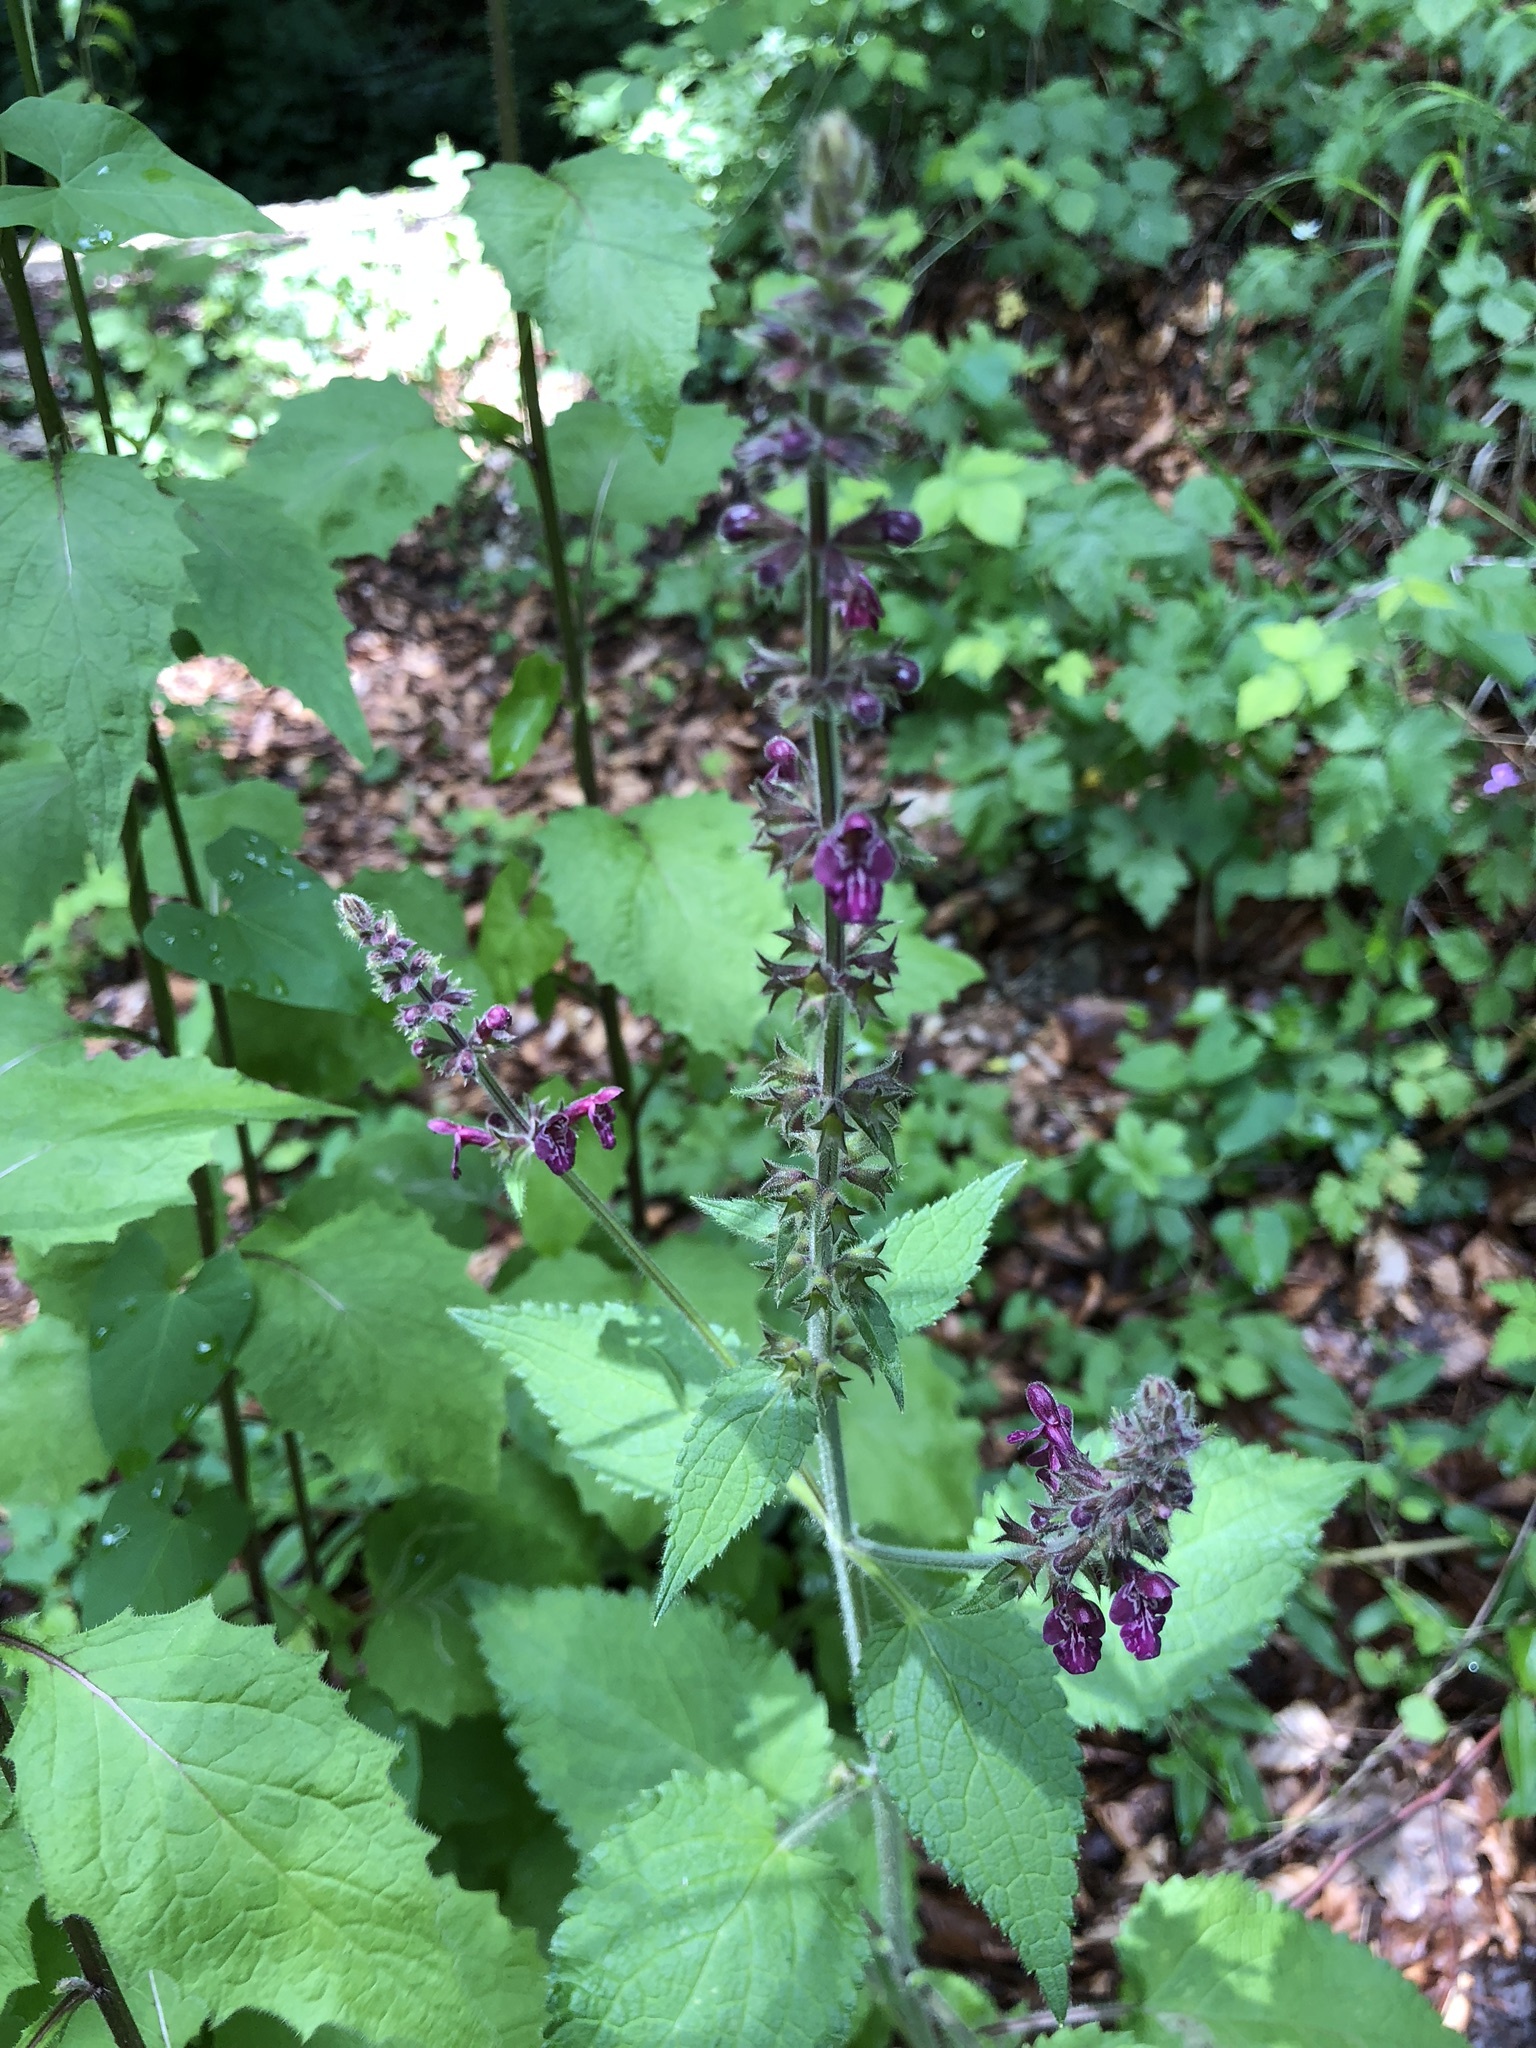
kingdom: Plantae
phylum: Tracheophyta
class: Magnoliopsida
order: Lamiales
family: Lamiaceae
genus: Stachys
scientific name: Stachys sylvatica
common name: Hedge woundwort
